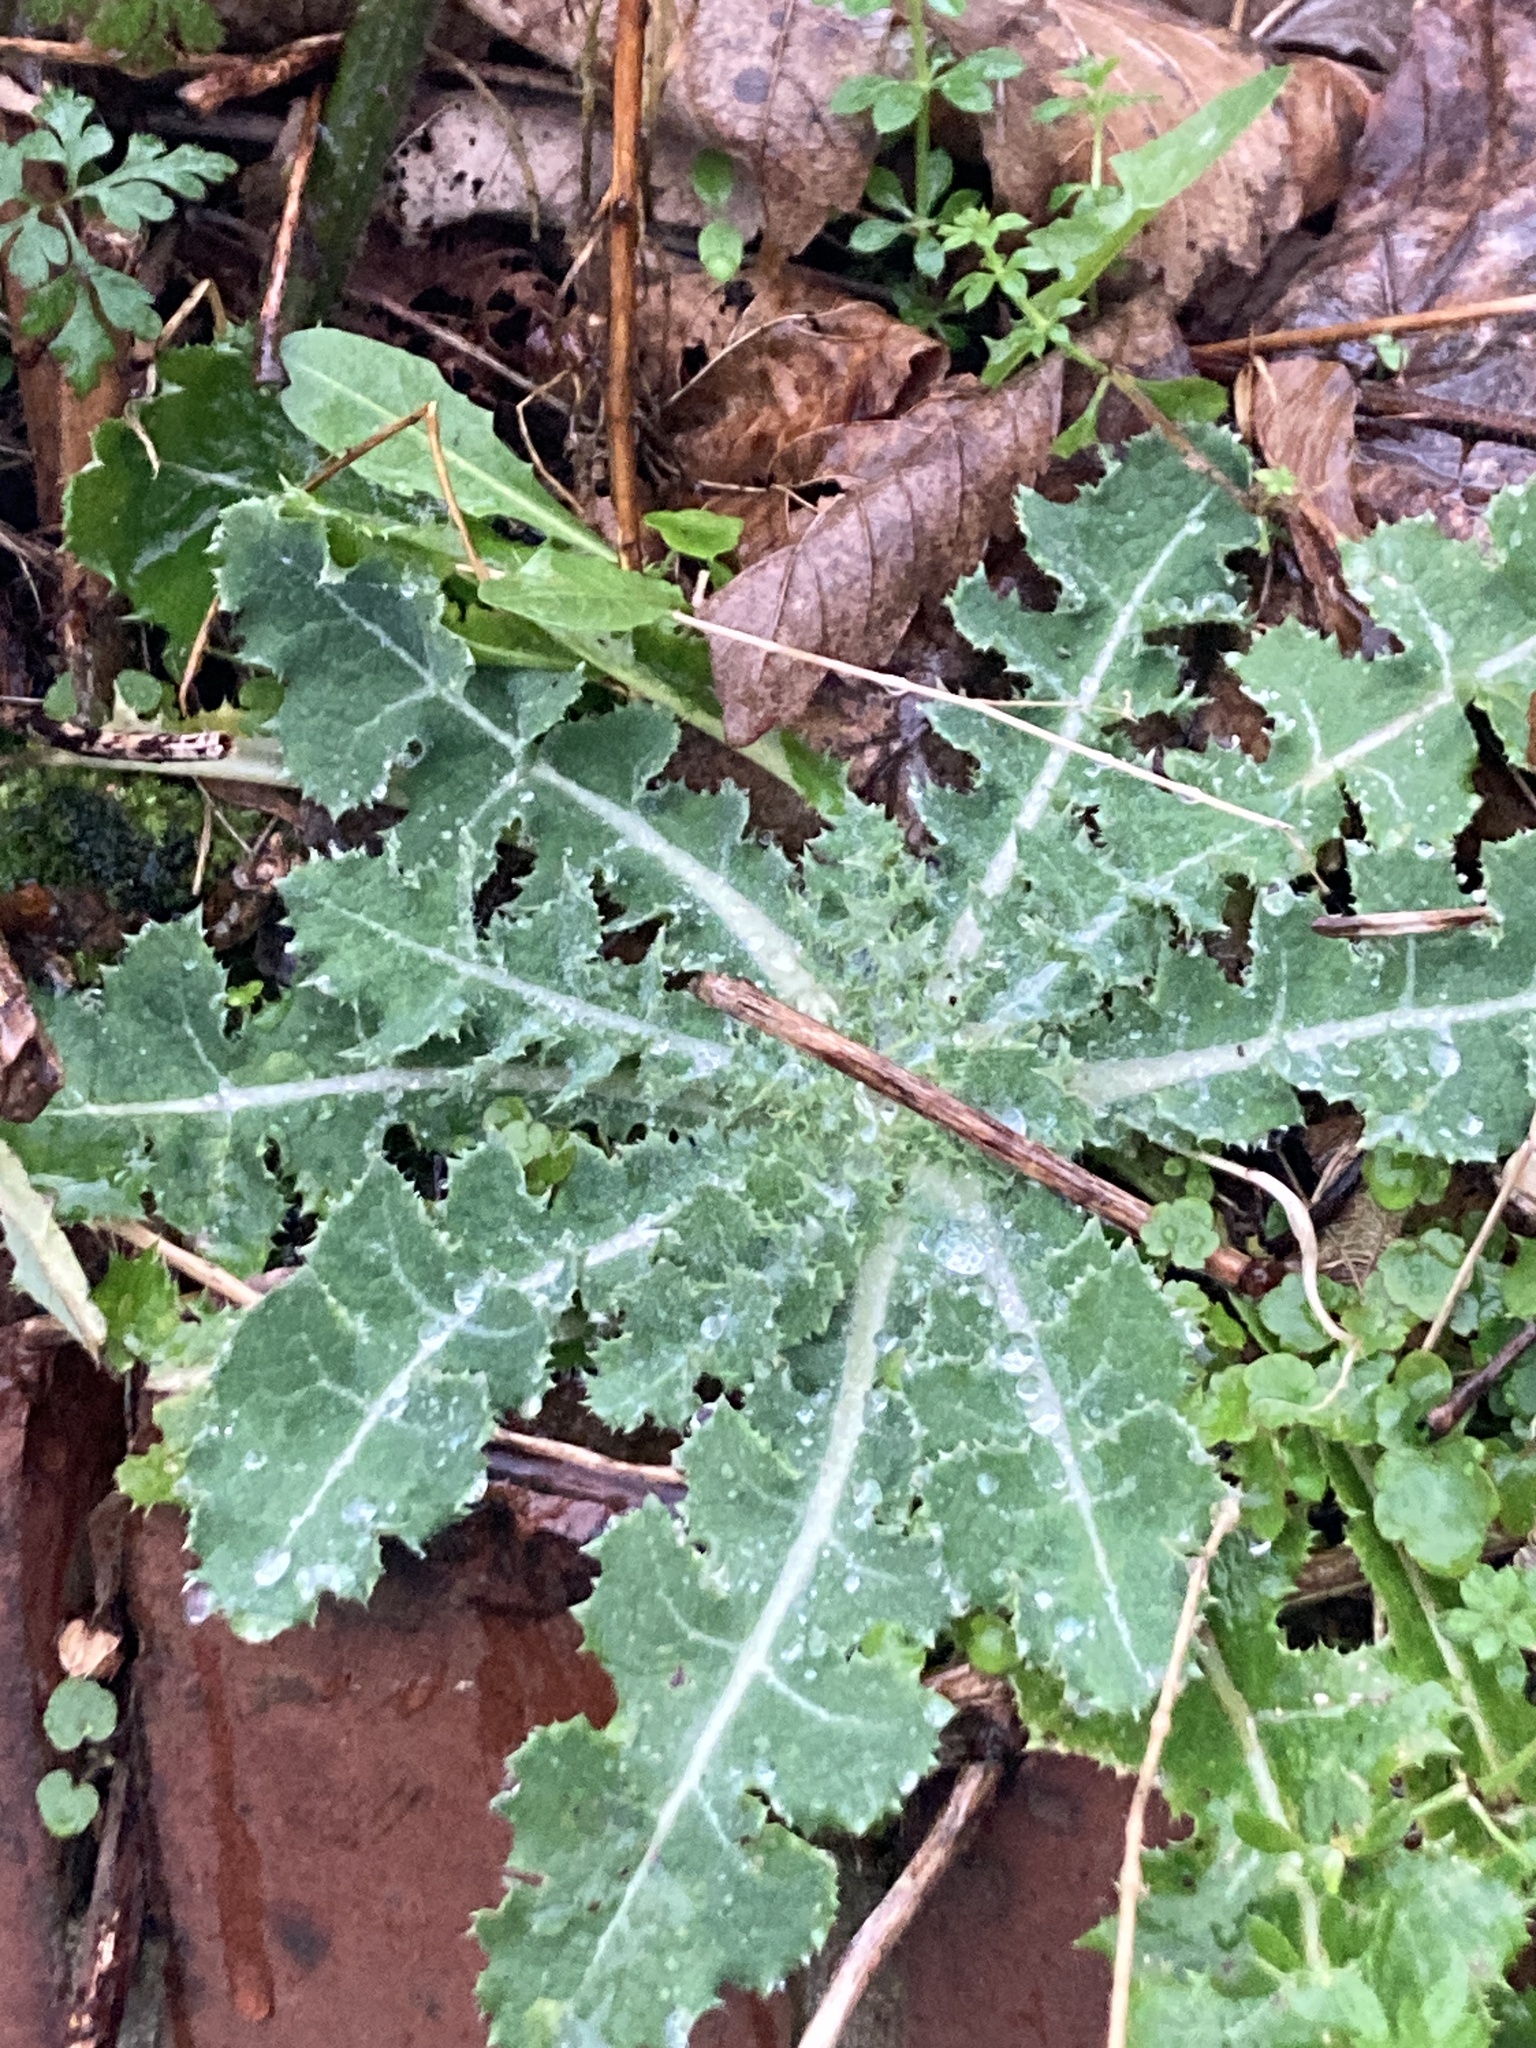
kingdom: Plantae
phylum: Tracheophyta
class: Magnoliopsida
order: Asterales
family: Asteraceae
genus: Sonchus
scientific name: Sonchus asper
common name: Prickly sow-thistle
